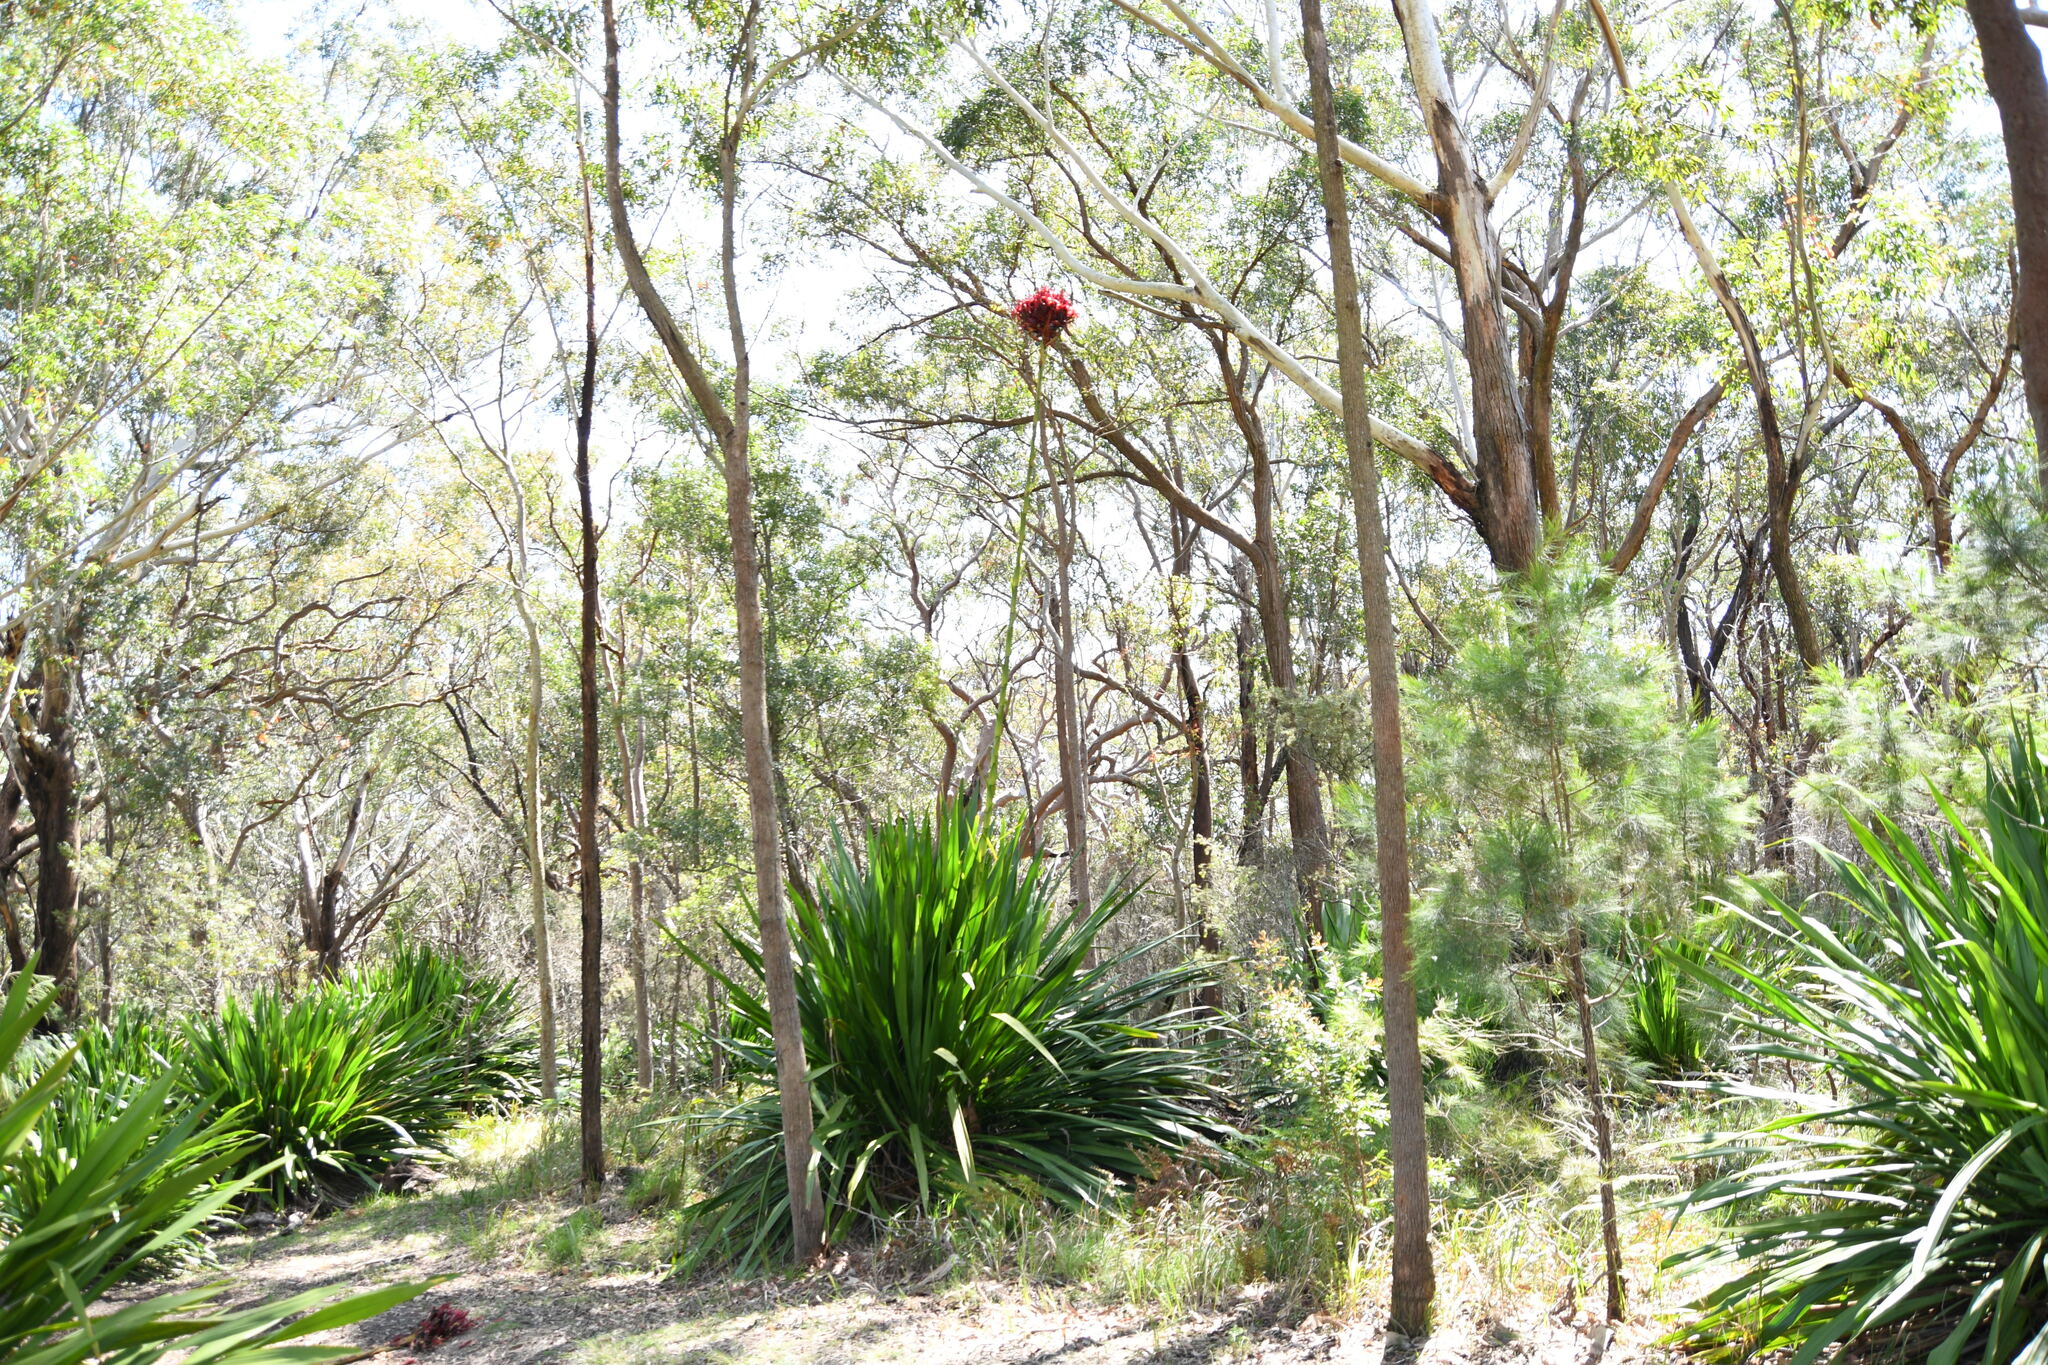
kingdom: Plantae
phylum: Tracheophyta
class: Liliopsida
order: Asparagales
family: Doryanthaceae
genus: Doryanthes
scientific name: Doryanthes excelsa
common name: Giant-lily
